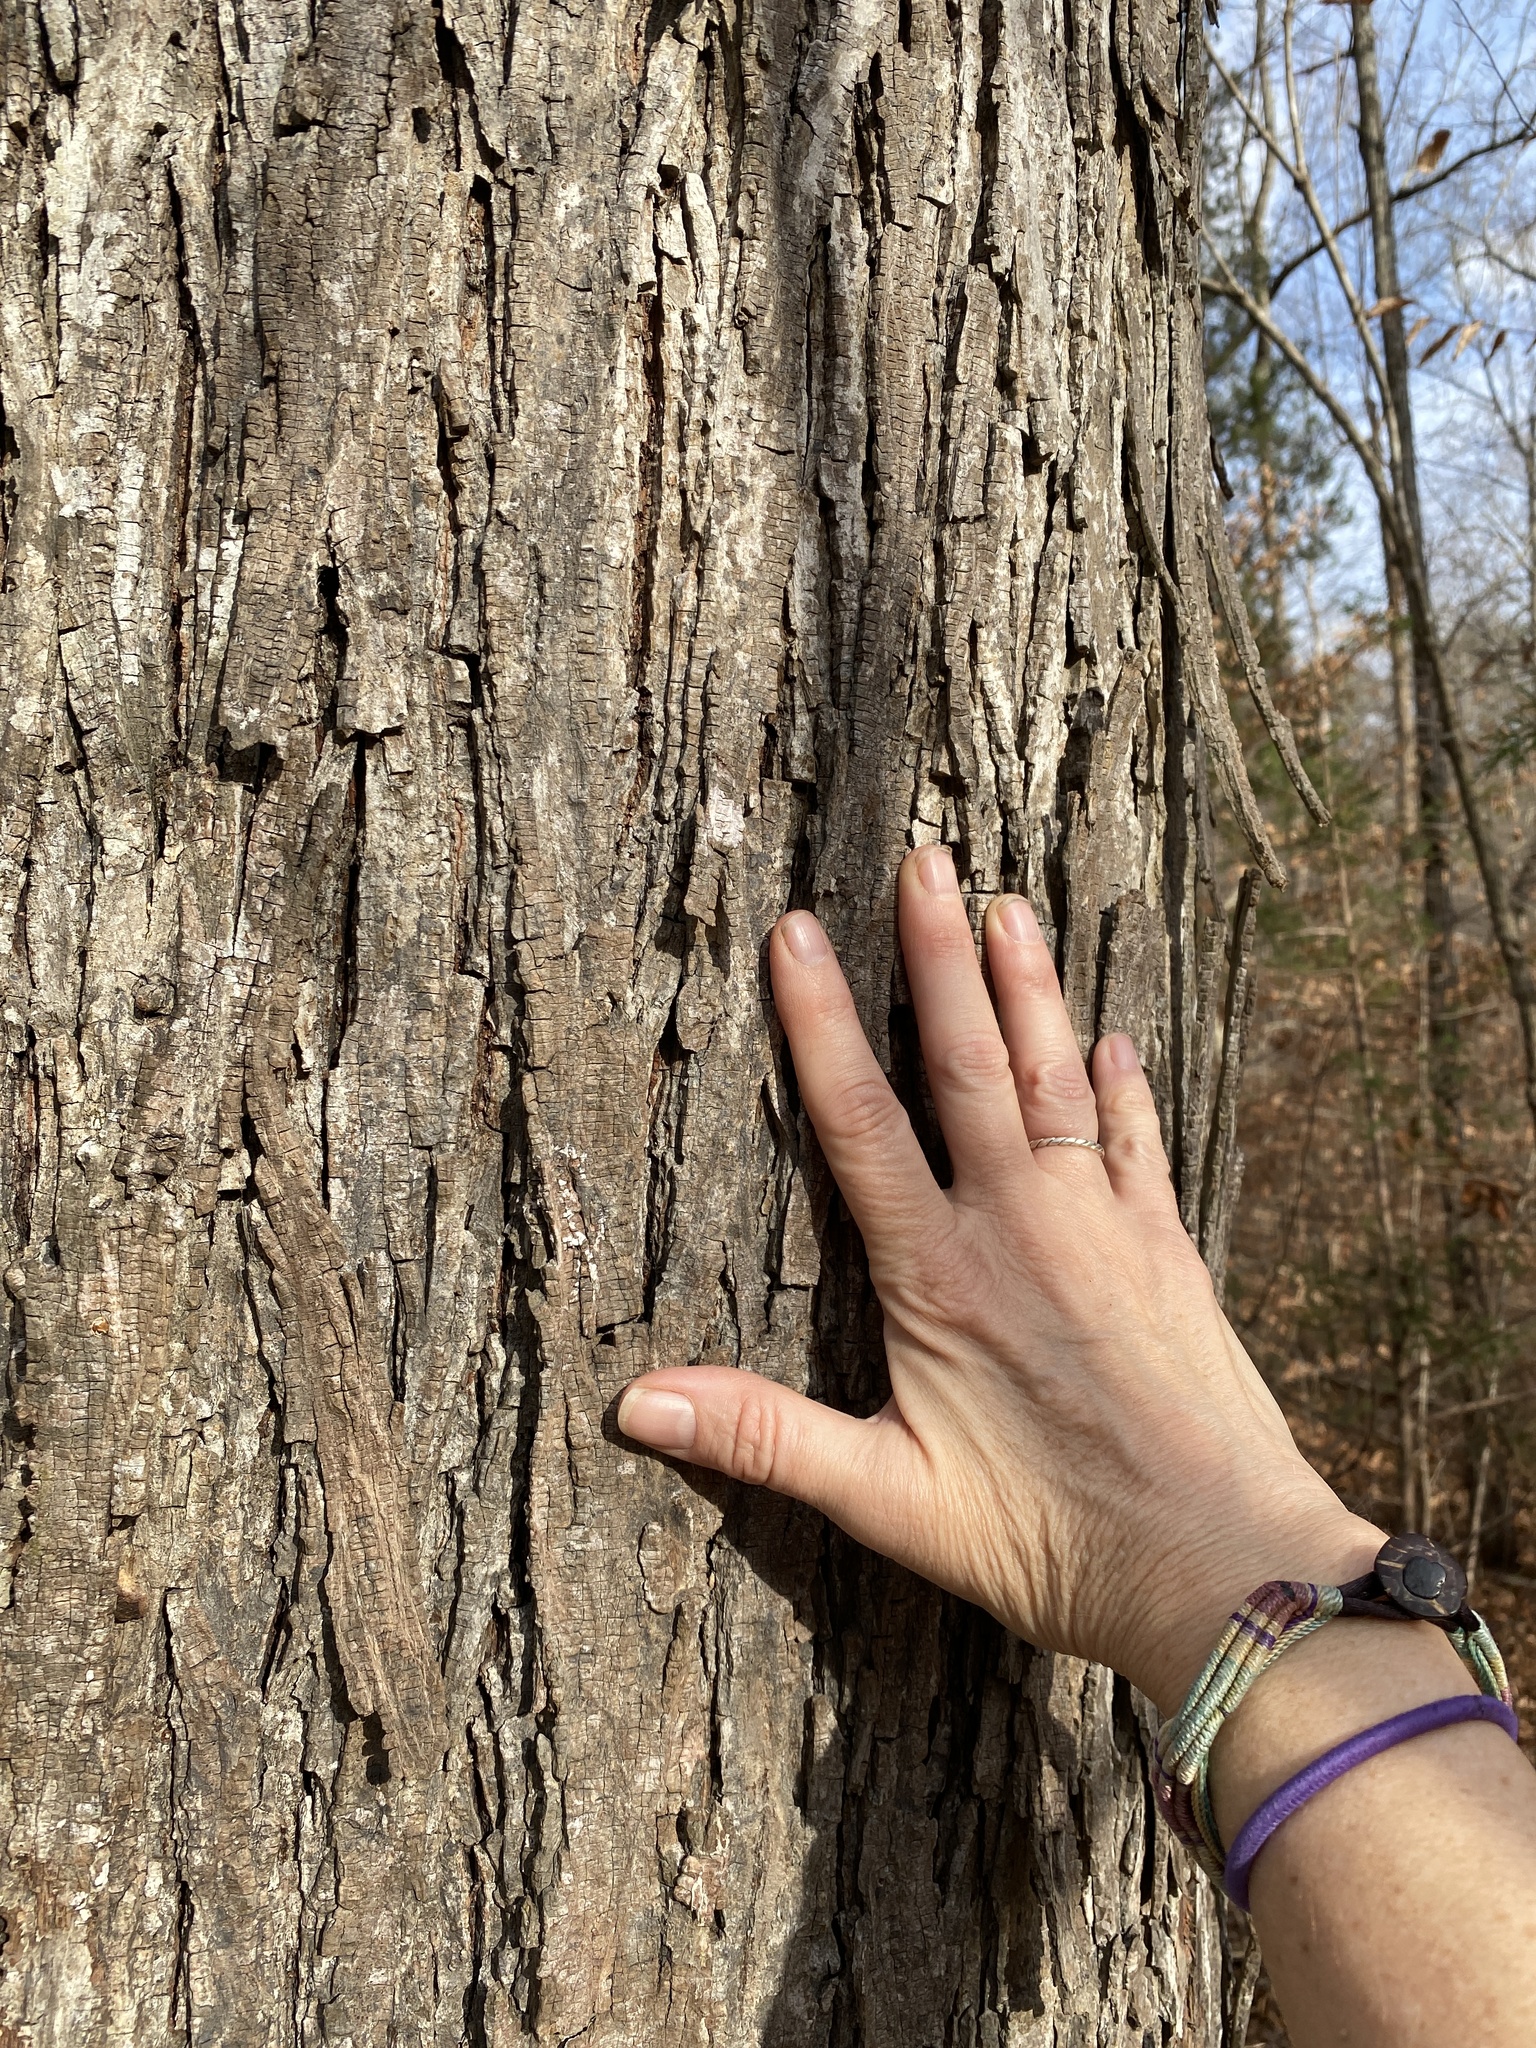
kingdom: Plantae
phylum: Tracheophyta
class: Magnoliopsida
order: Fagales
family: Juglandaceae
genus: Carya
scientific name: Carya ovata
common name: Shagbark hickory
